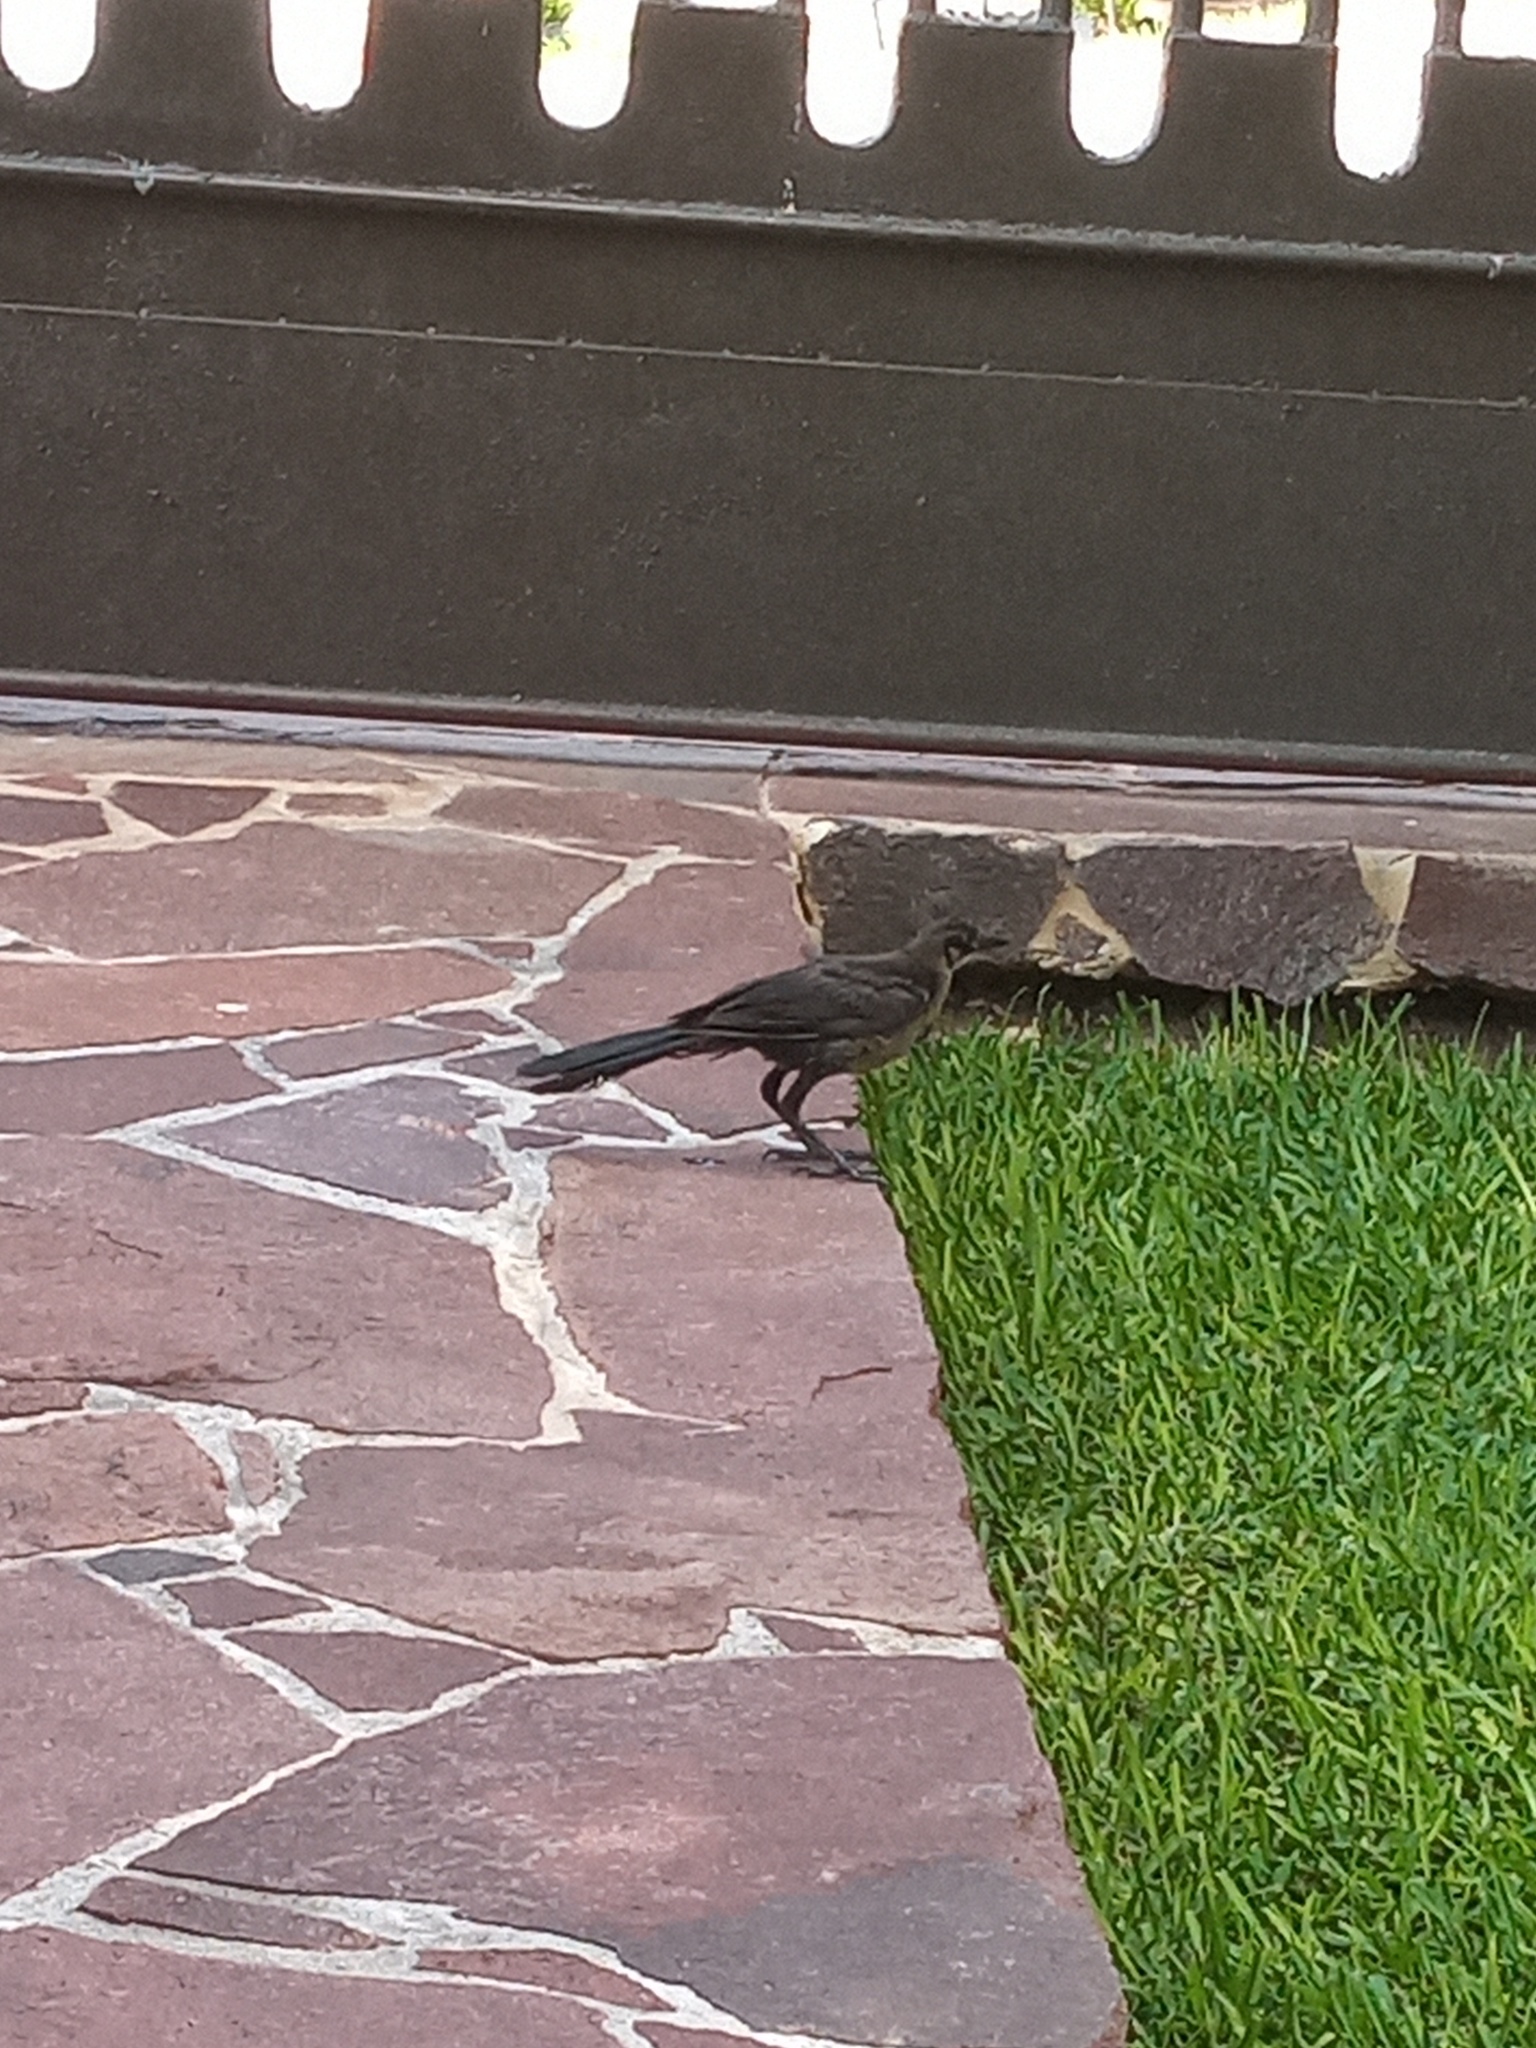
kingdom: Animalia
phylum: Chordata
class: Aves
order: Passeriformes
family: Icteridae
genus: Quiscalus
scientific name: Quiscalus mexicanus
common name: Great-tailed grackle
